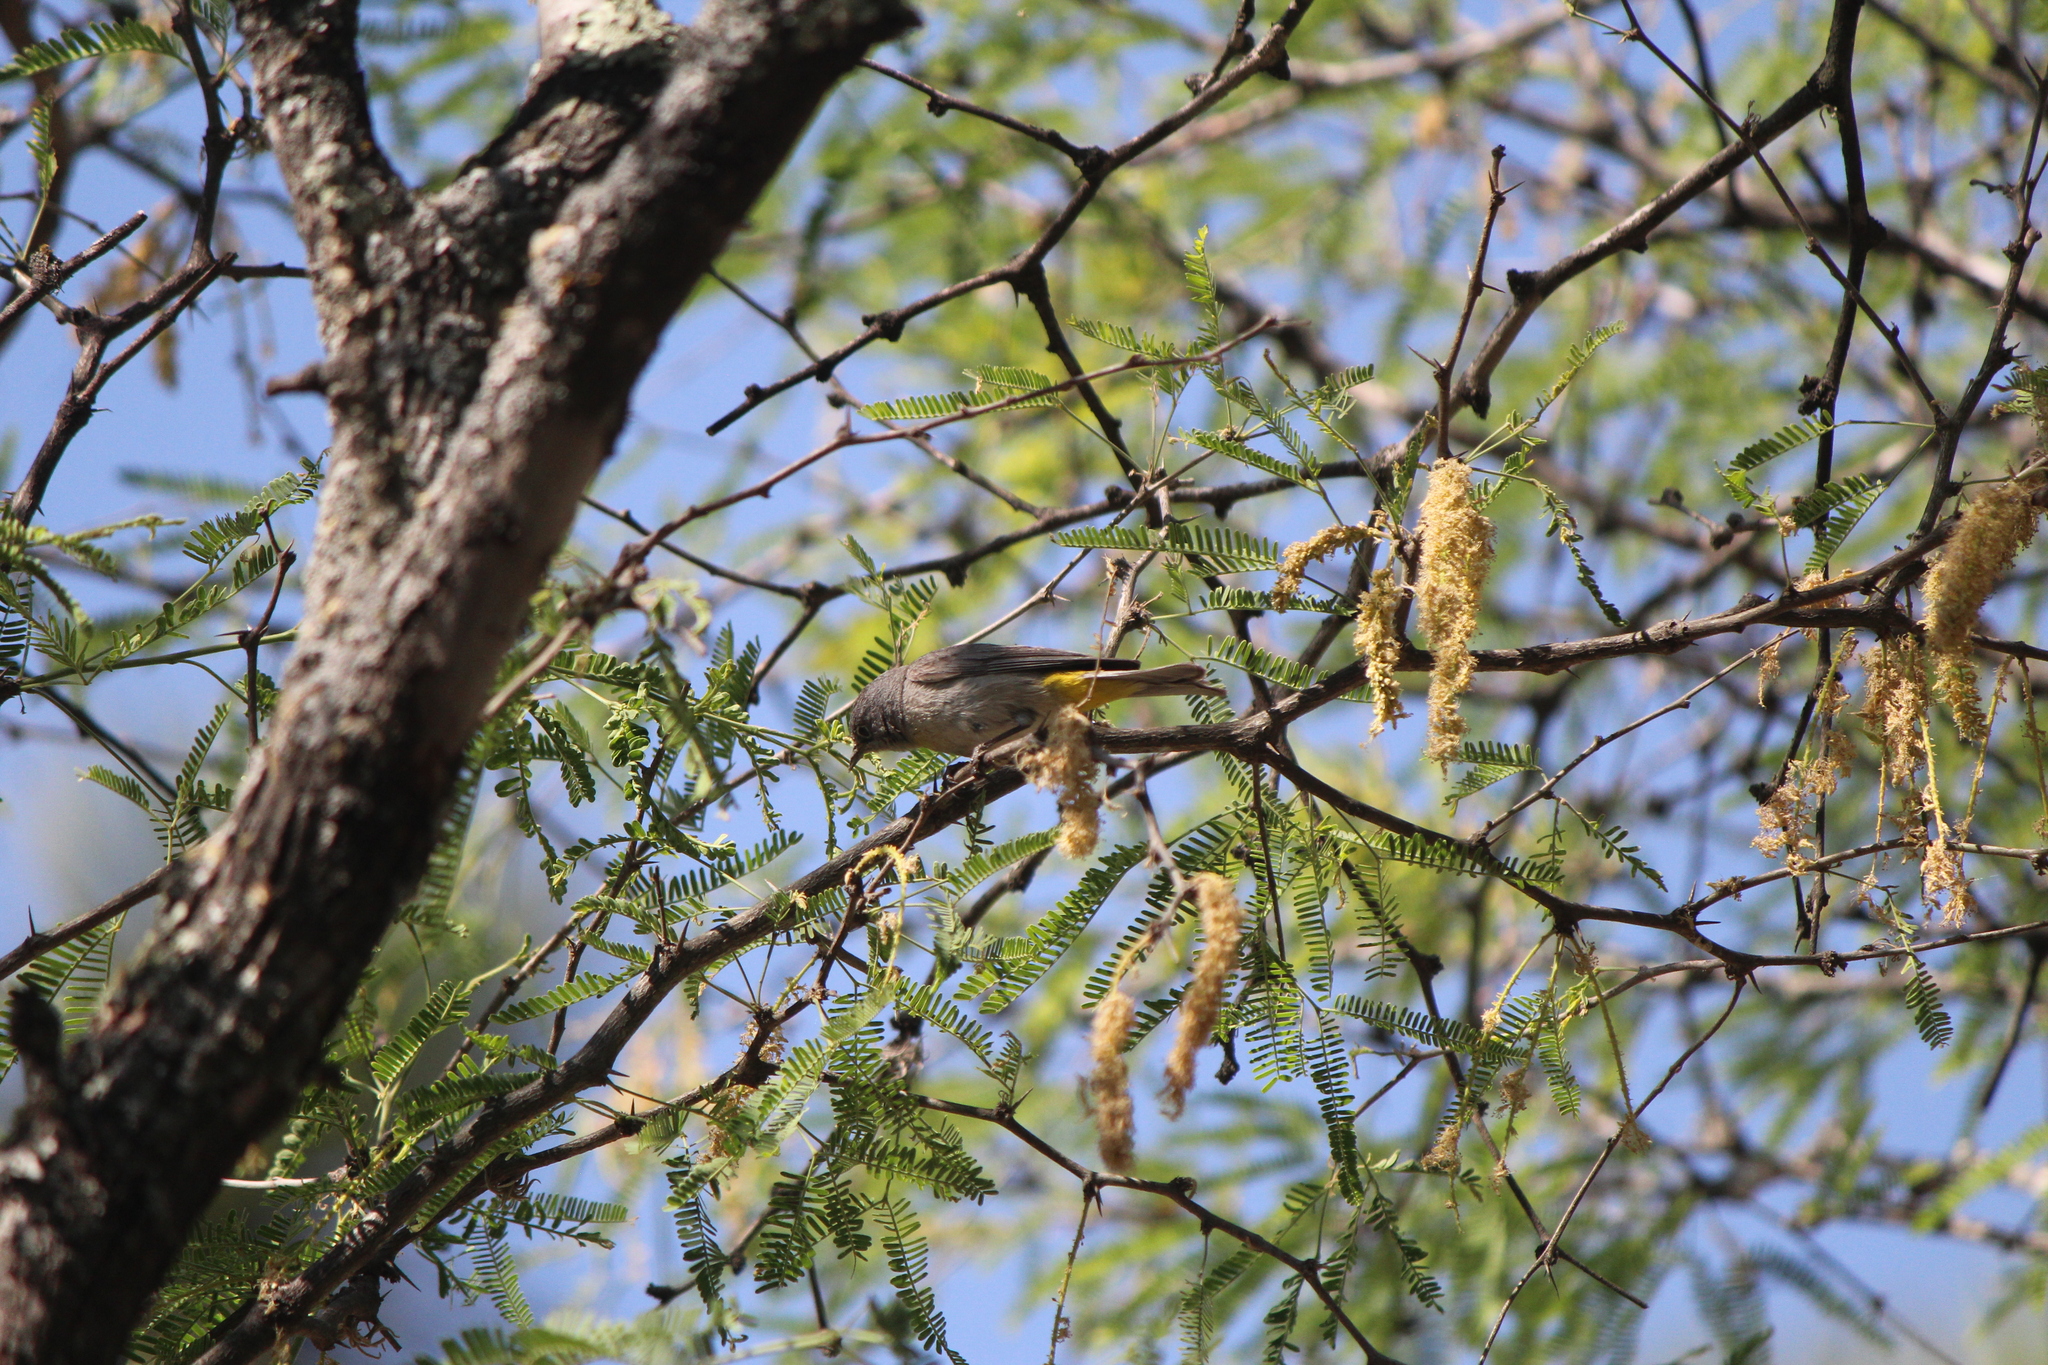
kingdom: Animalia
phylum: Chordata
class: Aves
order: Passeriformes
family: Parulidae
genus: Leiothlypis
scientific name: Leiothlypis virginiae
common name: Virginia's warbler
